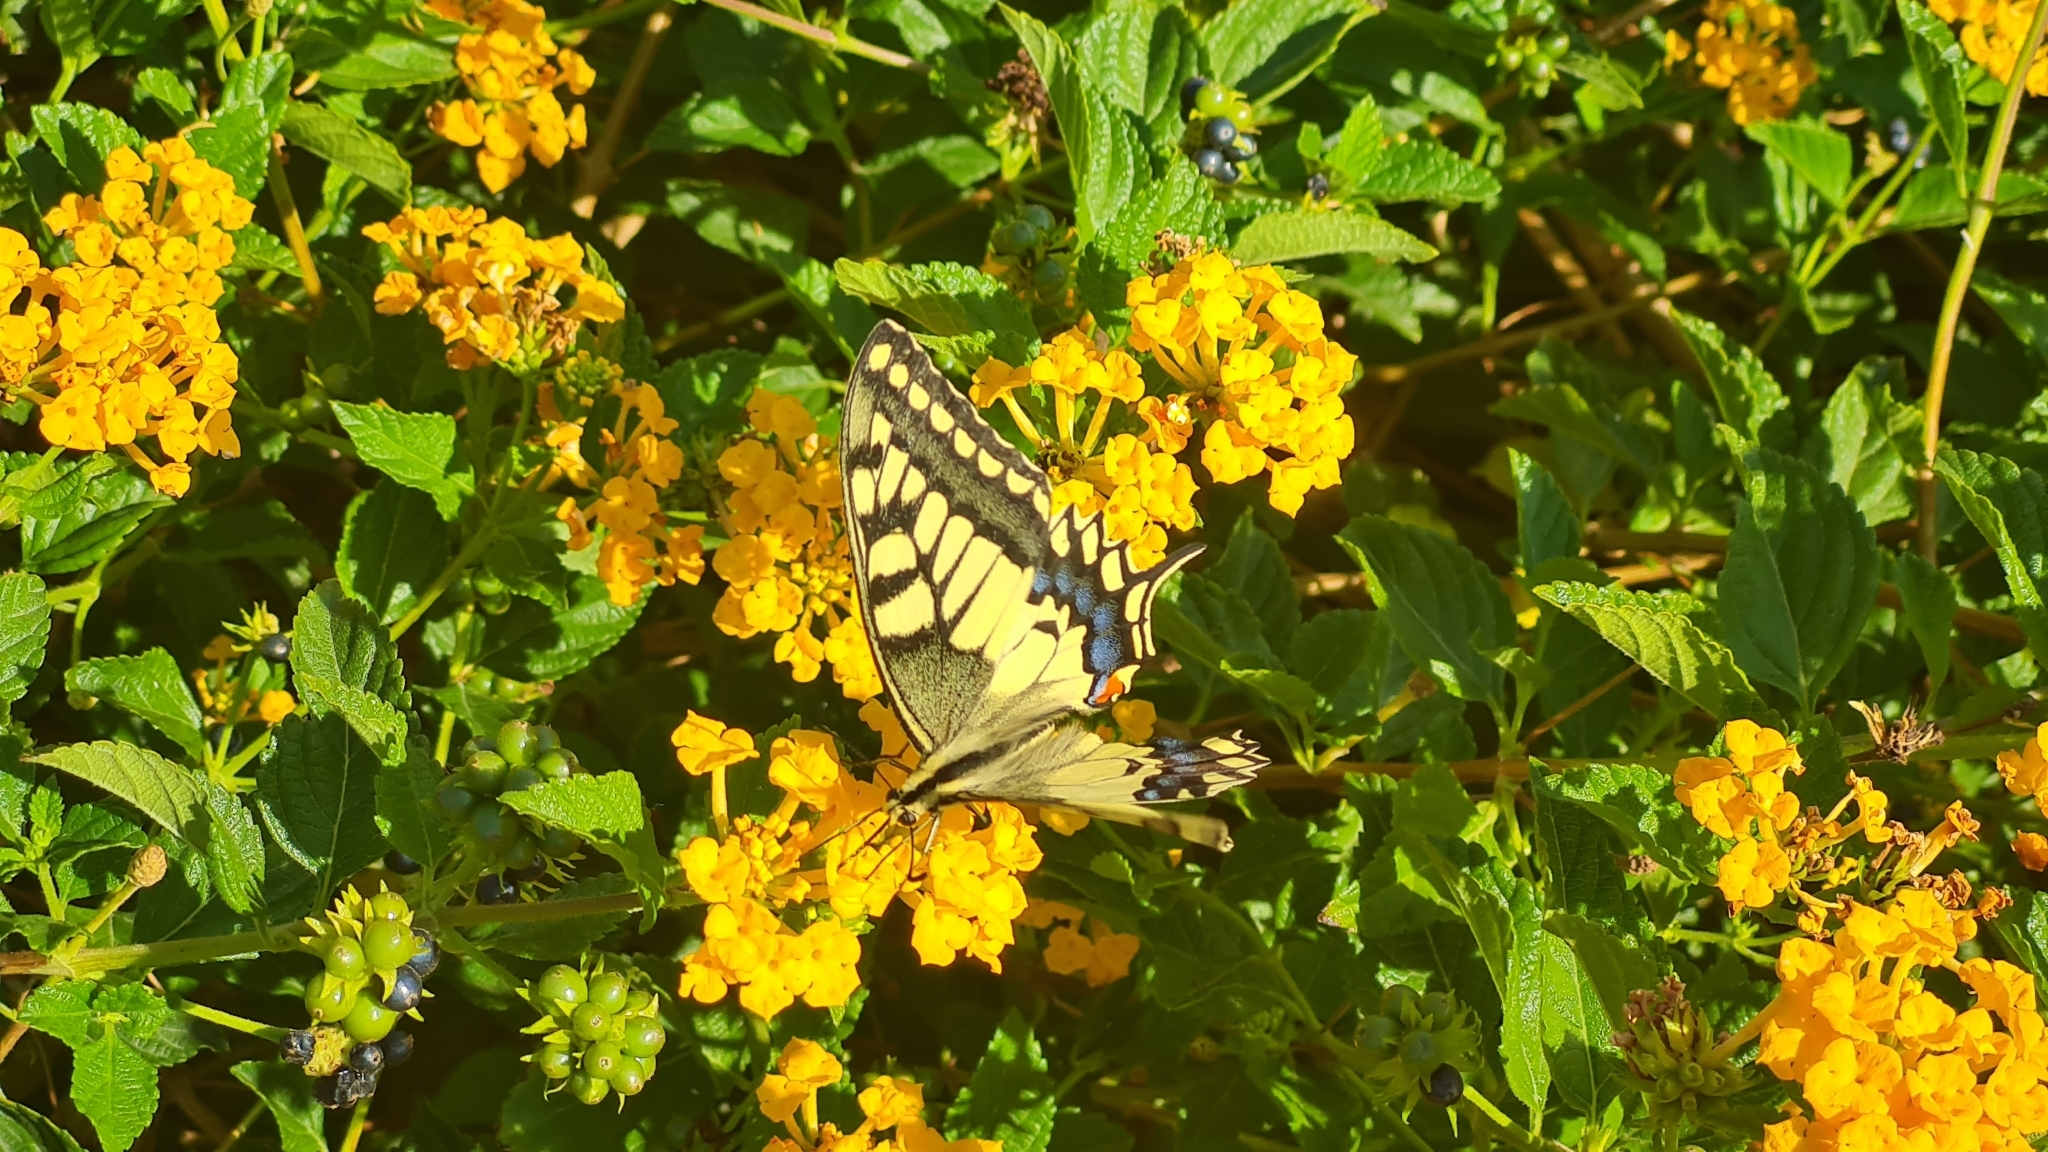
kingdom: Animalia
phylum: Arthropoda
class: Insecta
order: Lepidoptera
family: Papilionidae
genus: Papilio
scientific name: Papilio machaon
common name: Swallowtail
